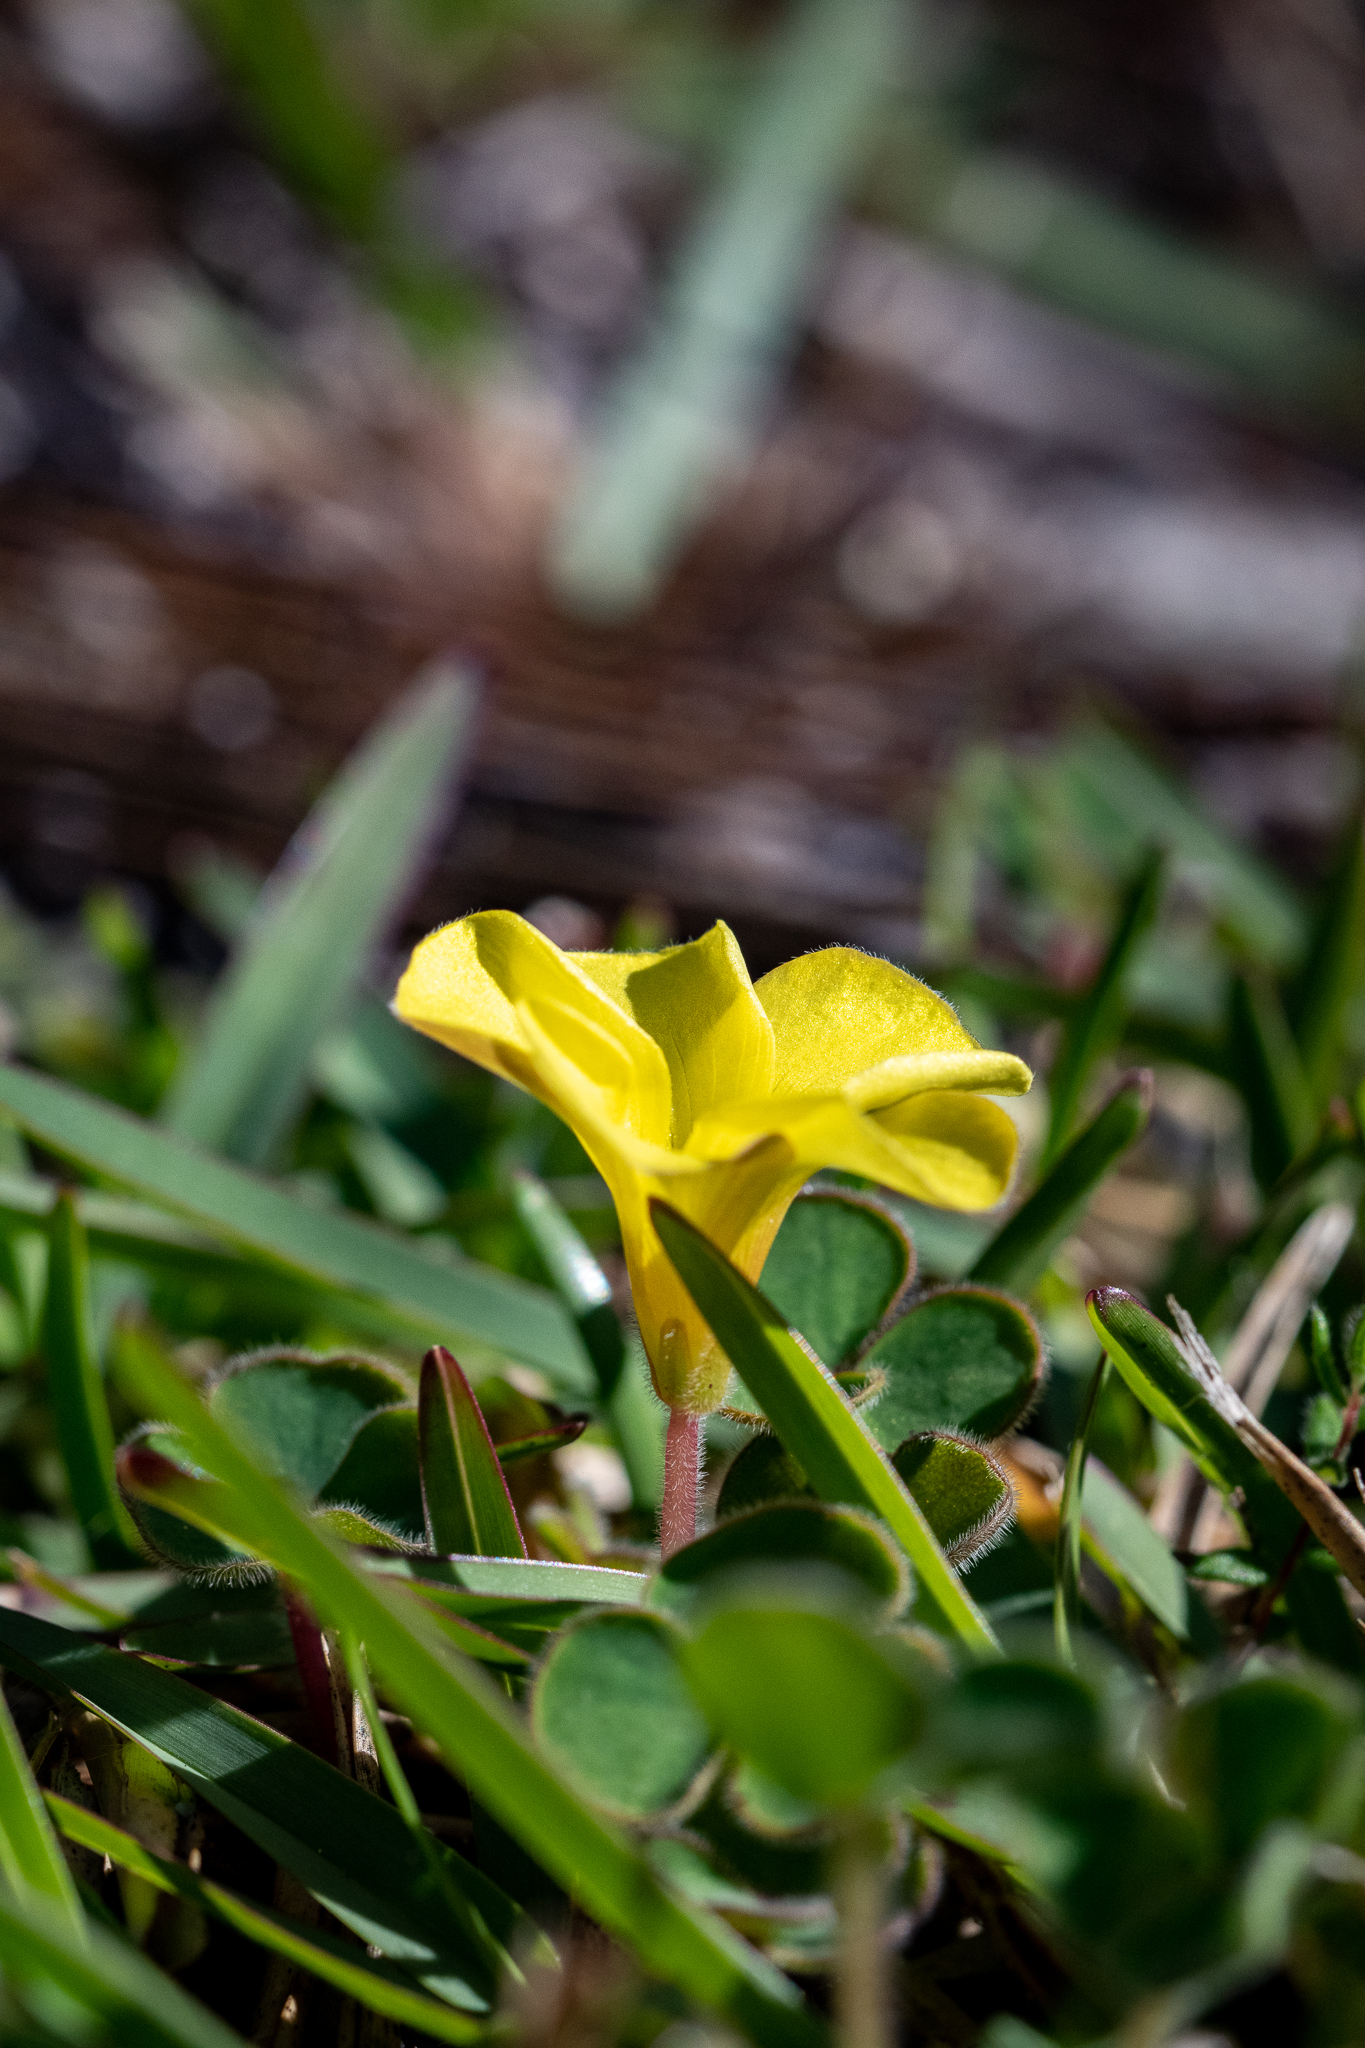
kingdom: Plantae
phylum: Tracheophyta
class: Magnoliopsida
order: Oxalidales
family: Oxalidaceae
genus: Oxalis
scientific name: Oxalis luteola
